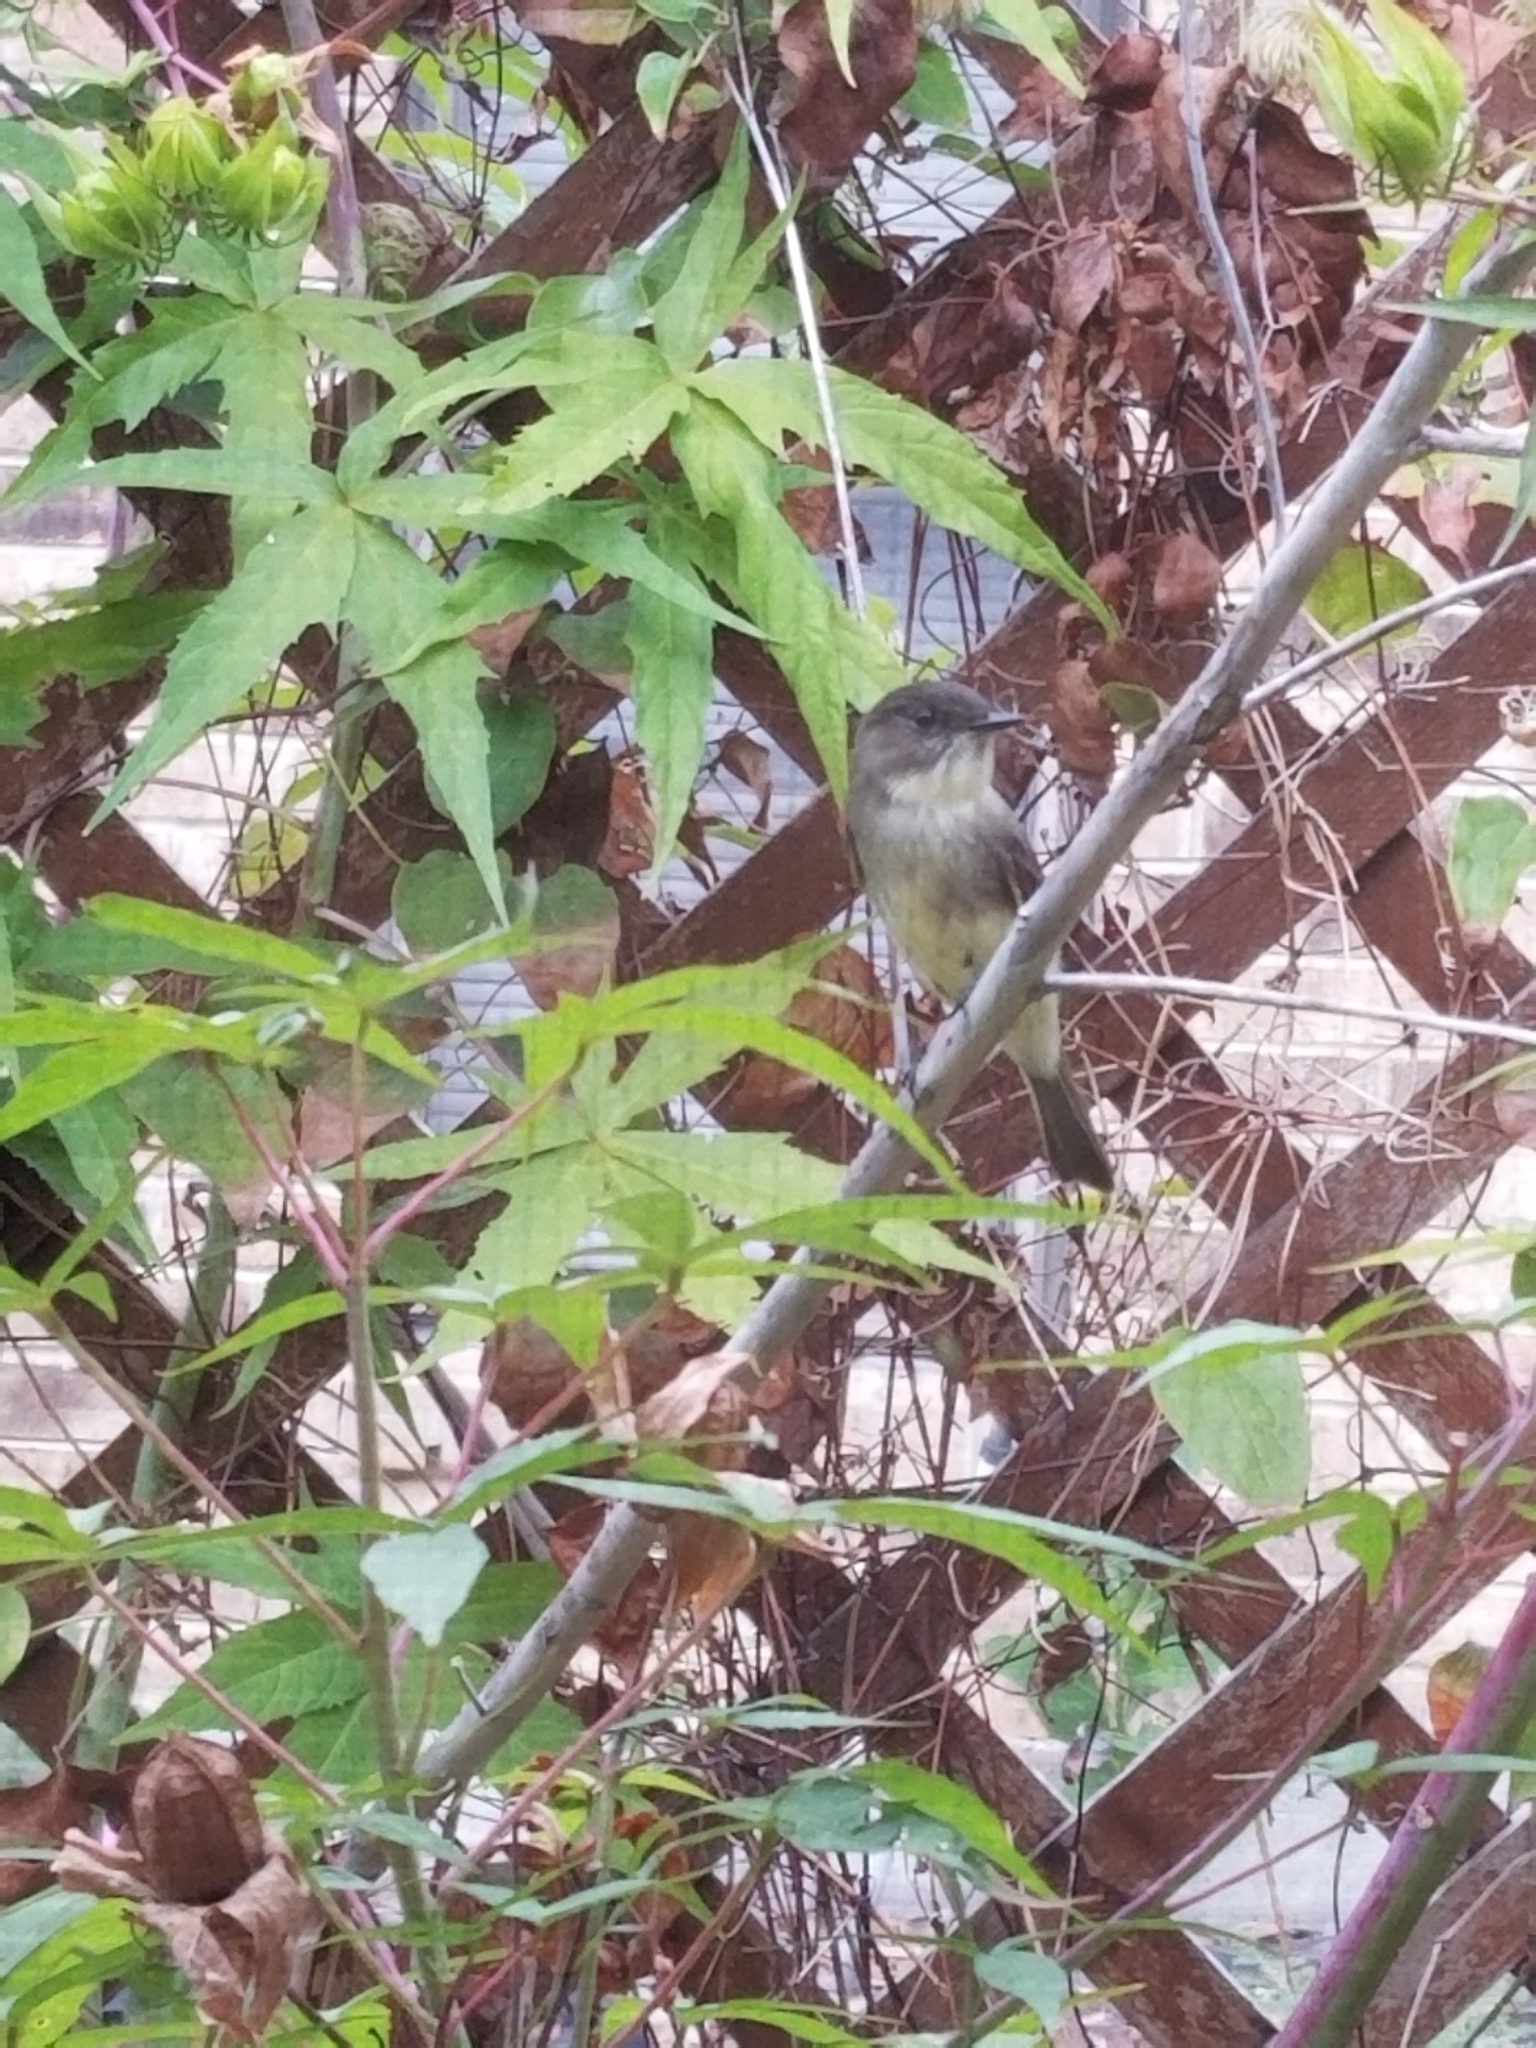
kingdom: Animalia
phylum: Chordata
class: Aves
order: Passeriformes
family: Tyrannidae
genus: Sayornis
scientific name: Sayornis phoebe
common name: Eastern phoebe
